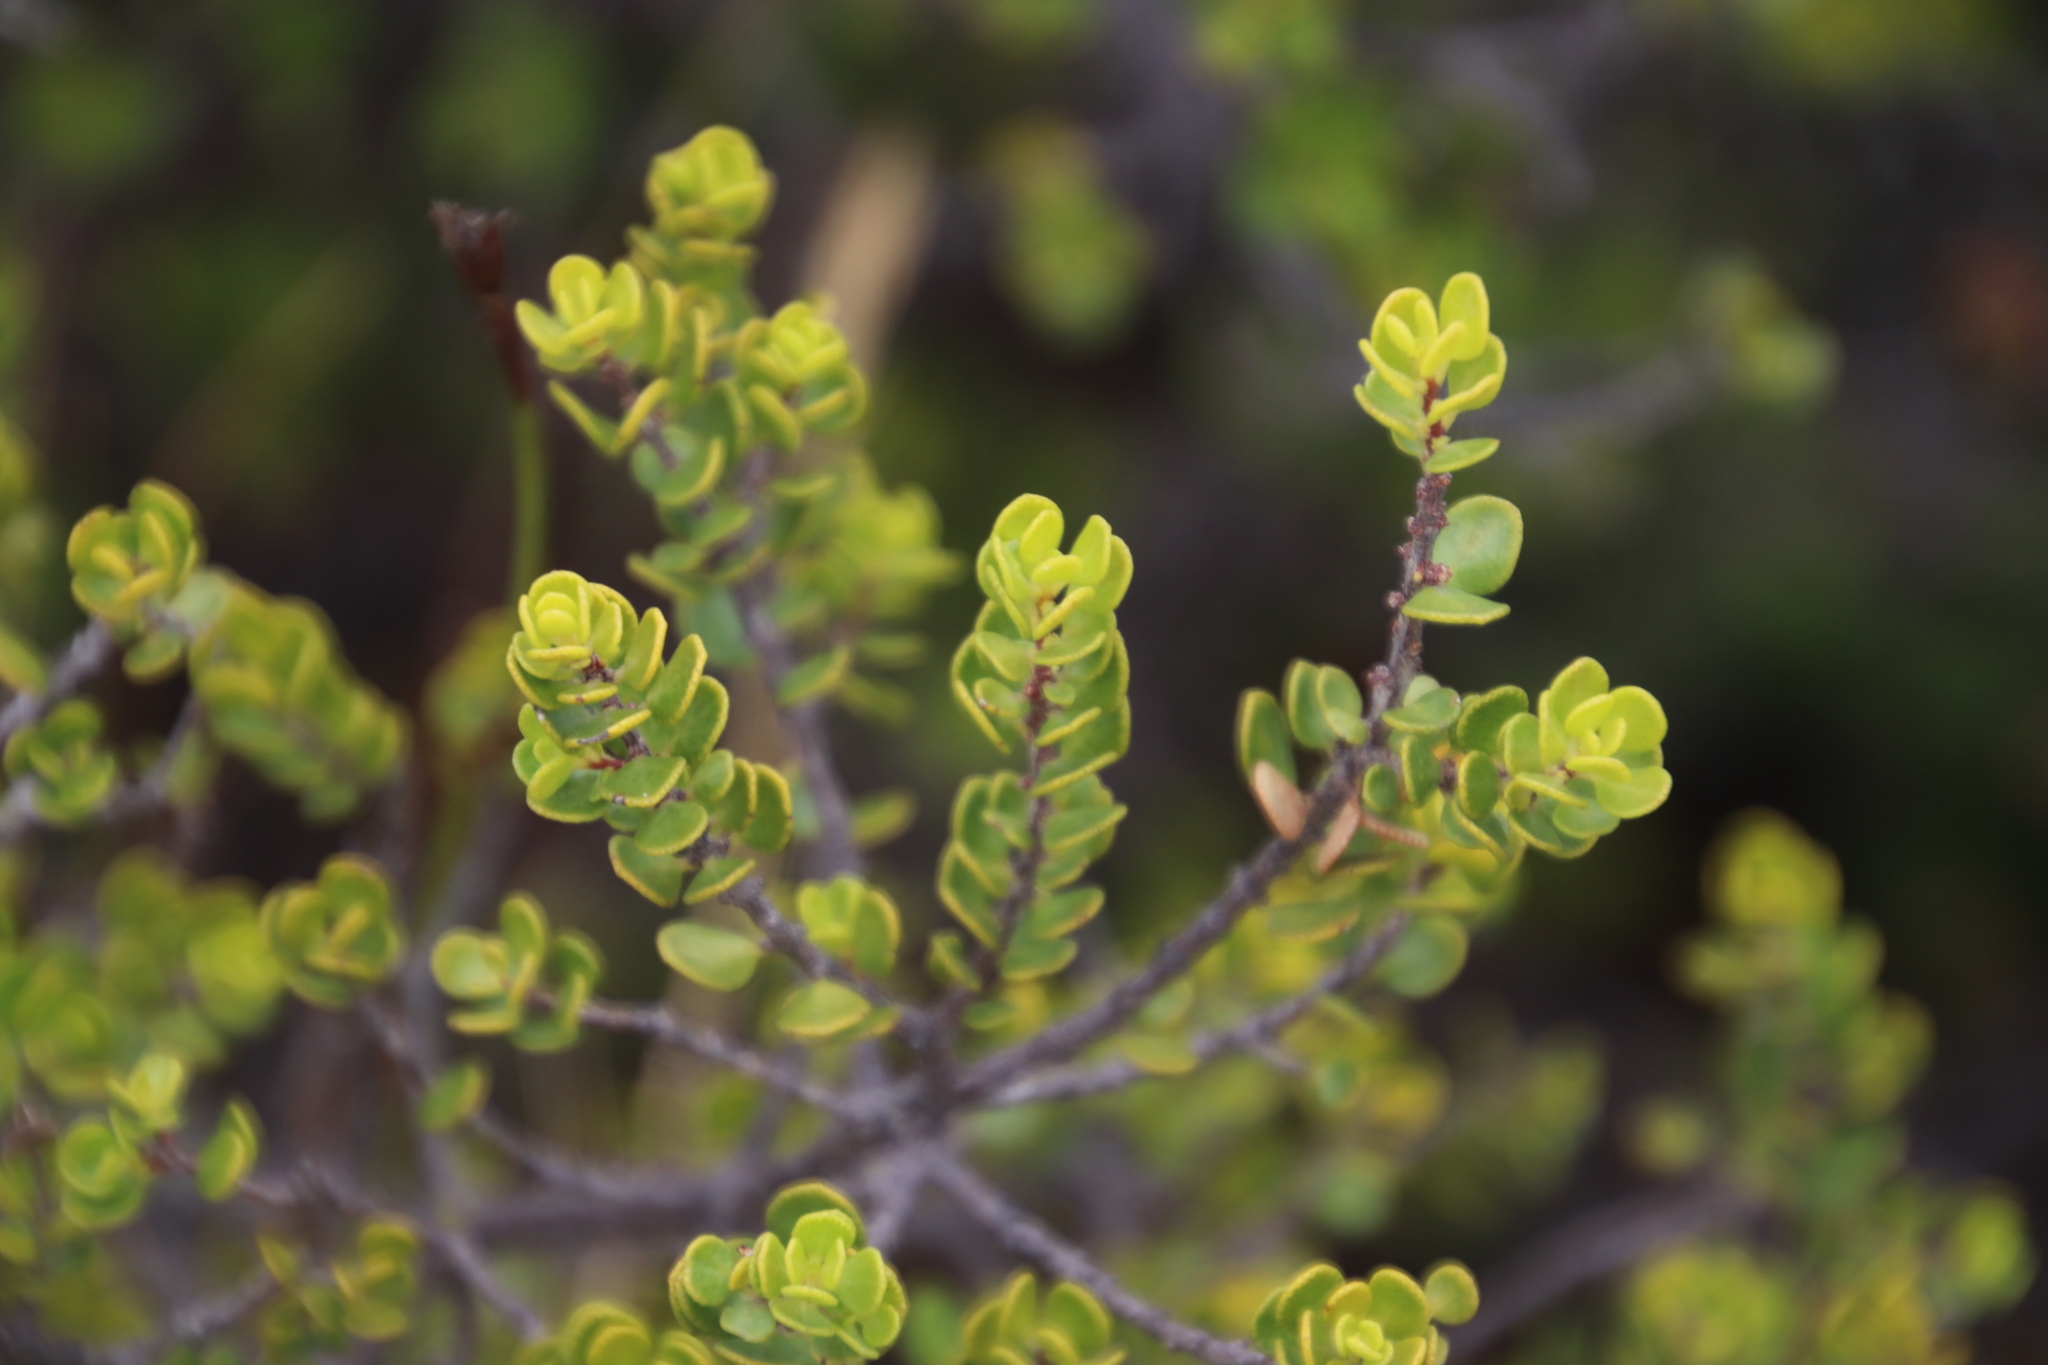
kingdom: Plantae
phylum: Tracheophyta
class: Magnoliopsida
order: Sapindales
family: Rutaceae
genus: Agathosma
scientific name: Agathosma ovata
